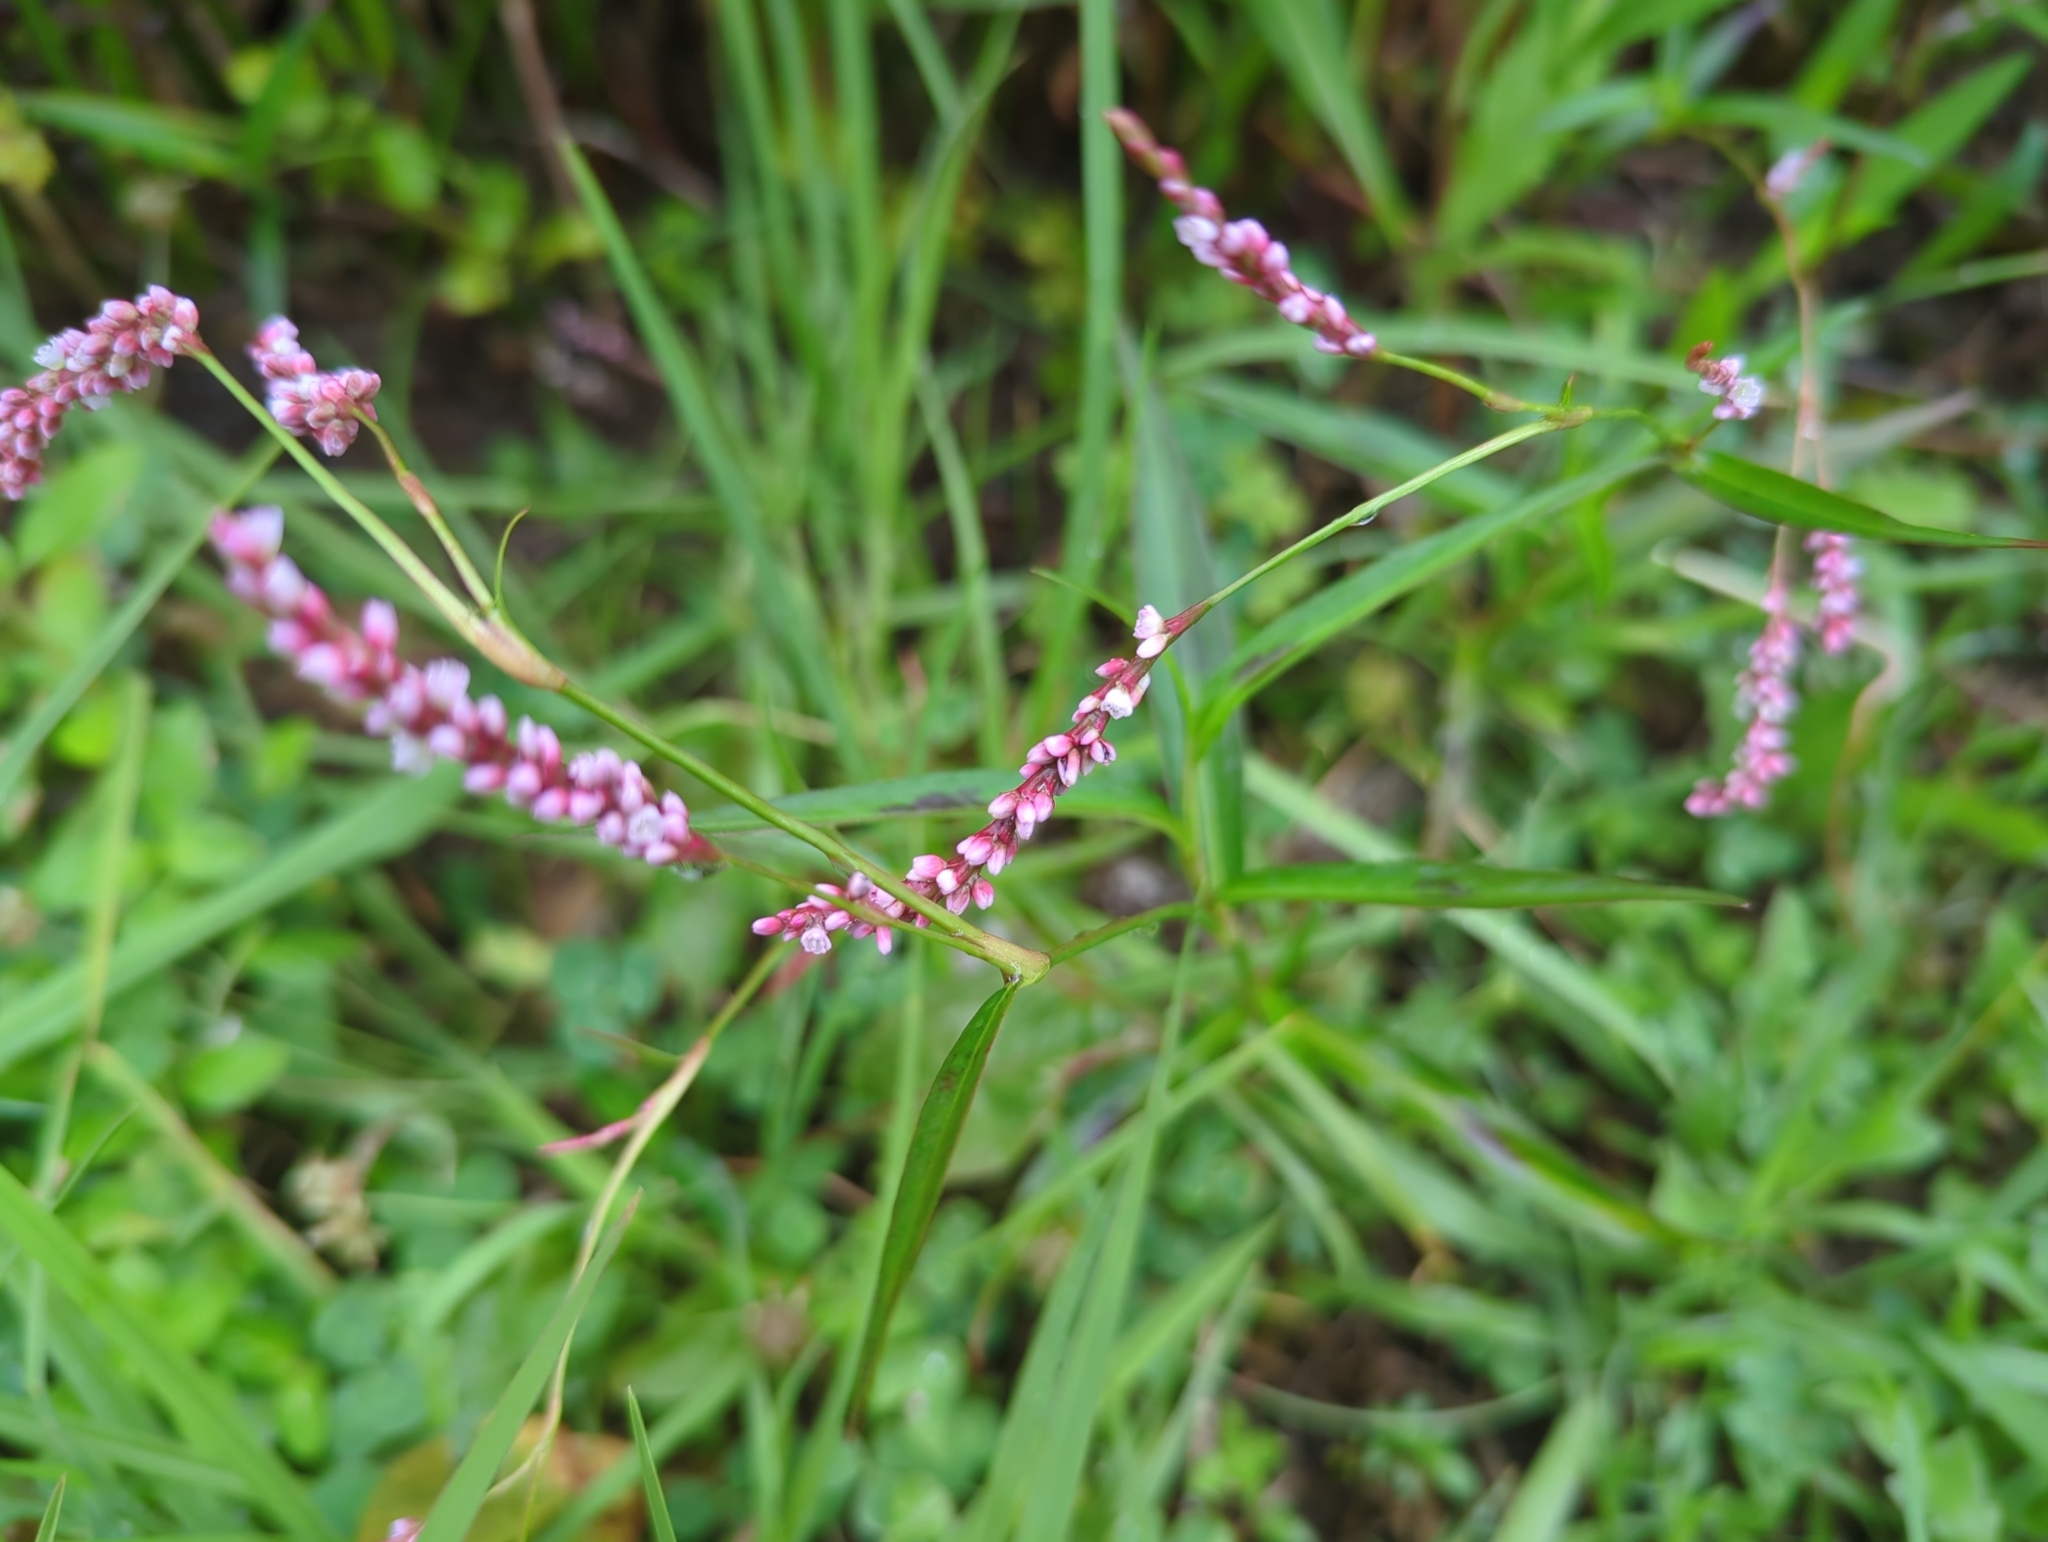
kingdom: Plantae
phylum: Tracheophyta
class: Magnoliopsida
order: Caryophyllales
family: Polygonaceae
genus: Persicaria
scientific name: Persicaria decipiens
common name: Willow-weed
